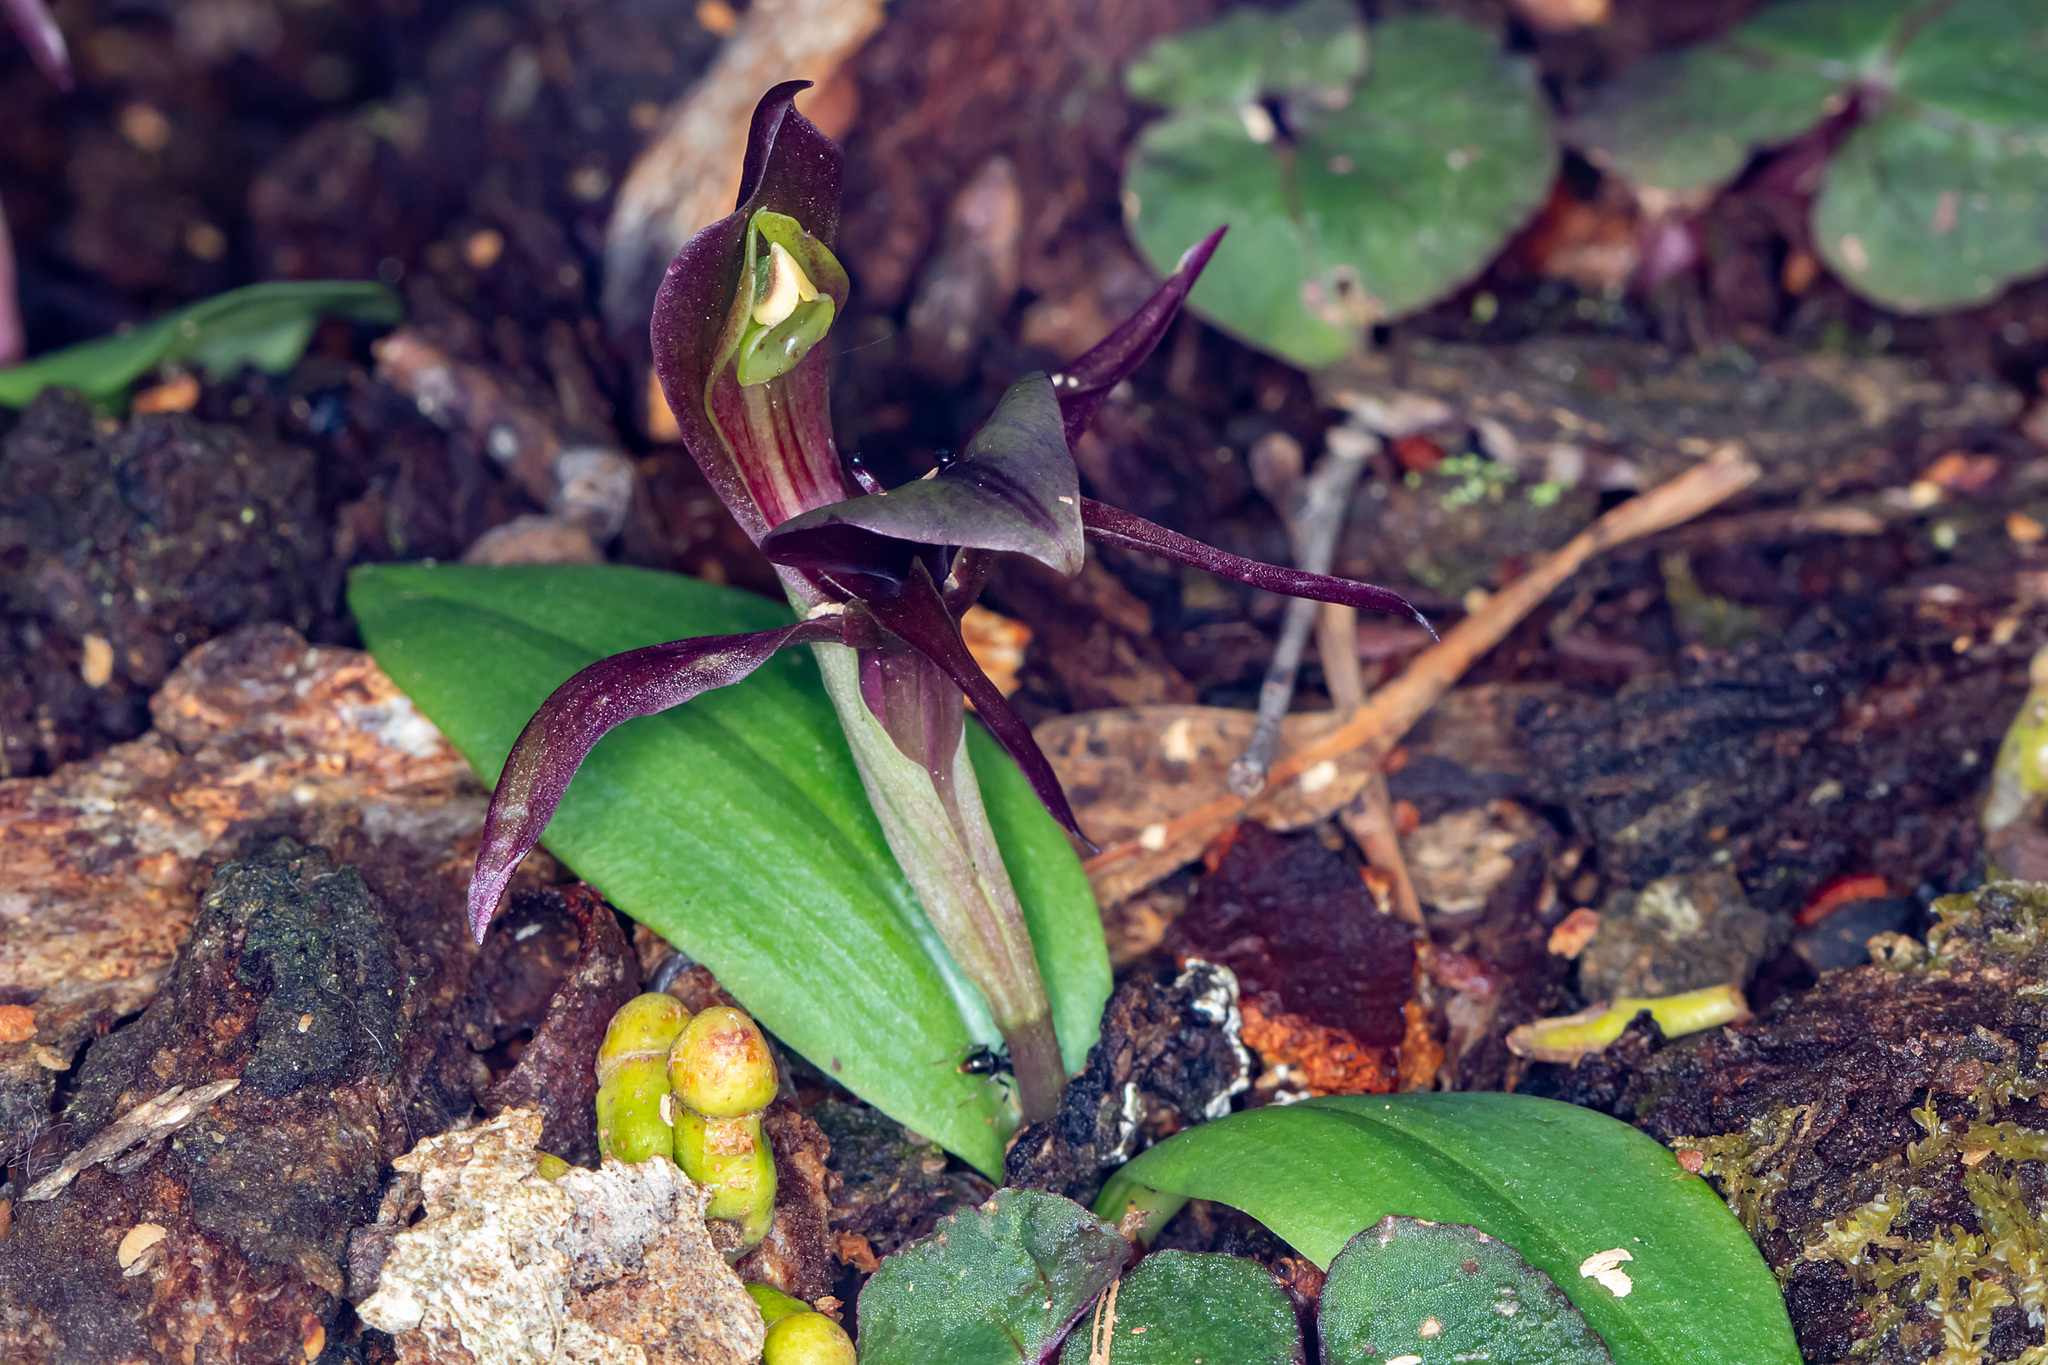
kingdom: Plantae
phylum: Tracheophyta
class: Liliopsida
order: Asparagales
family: Orchidaceae
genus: Chiloglottis
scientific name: Chiloglottis valida
